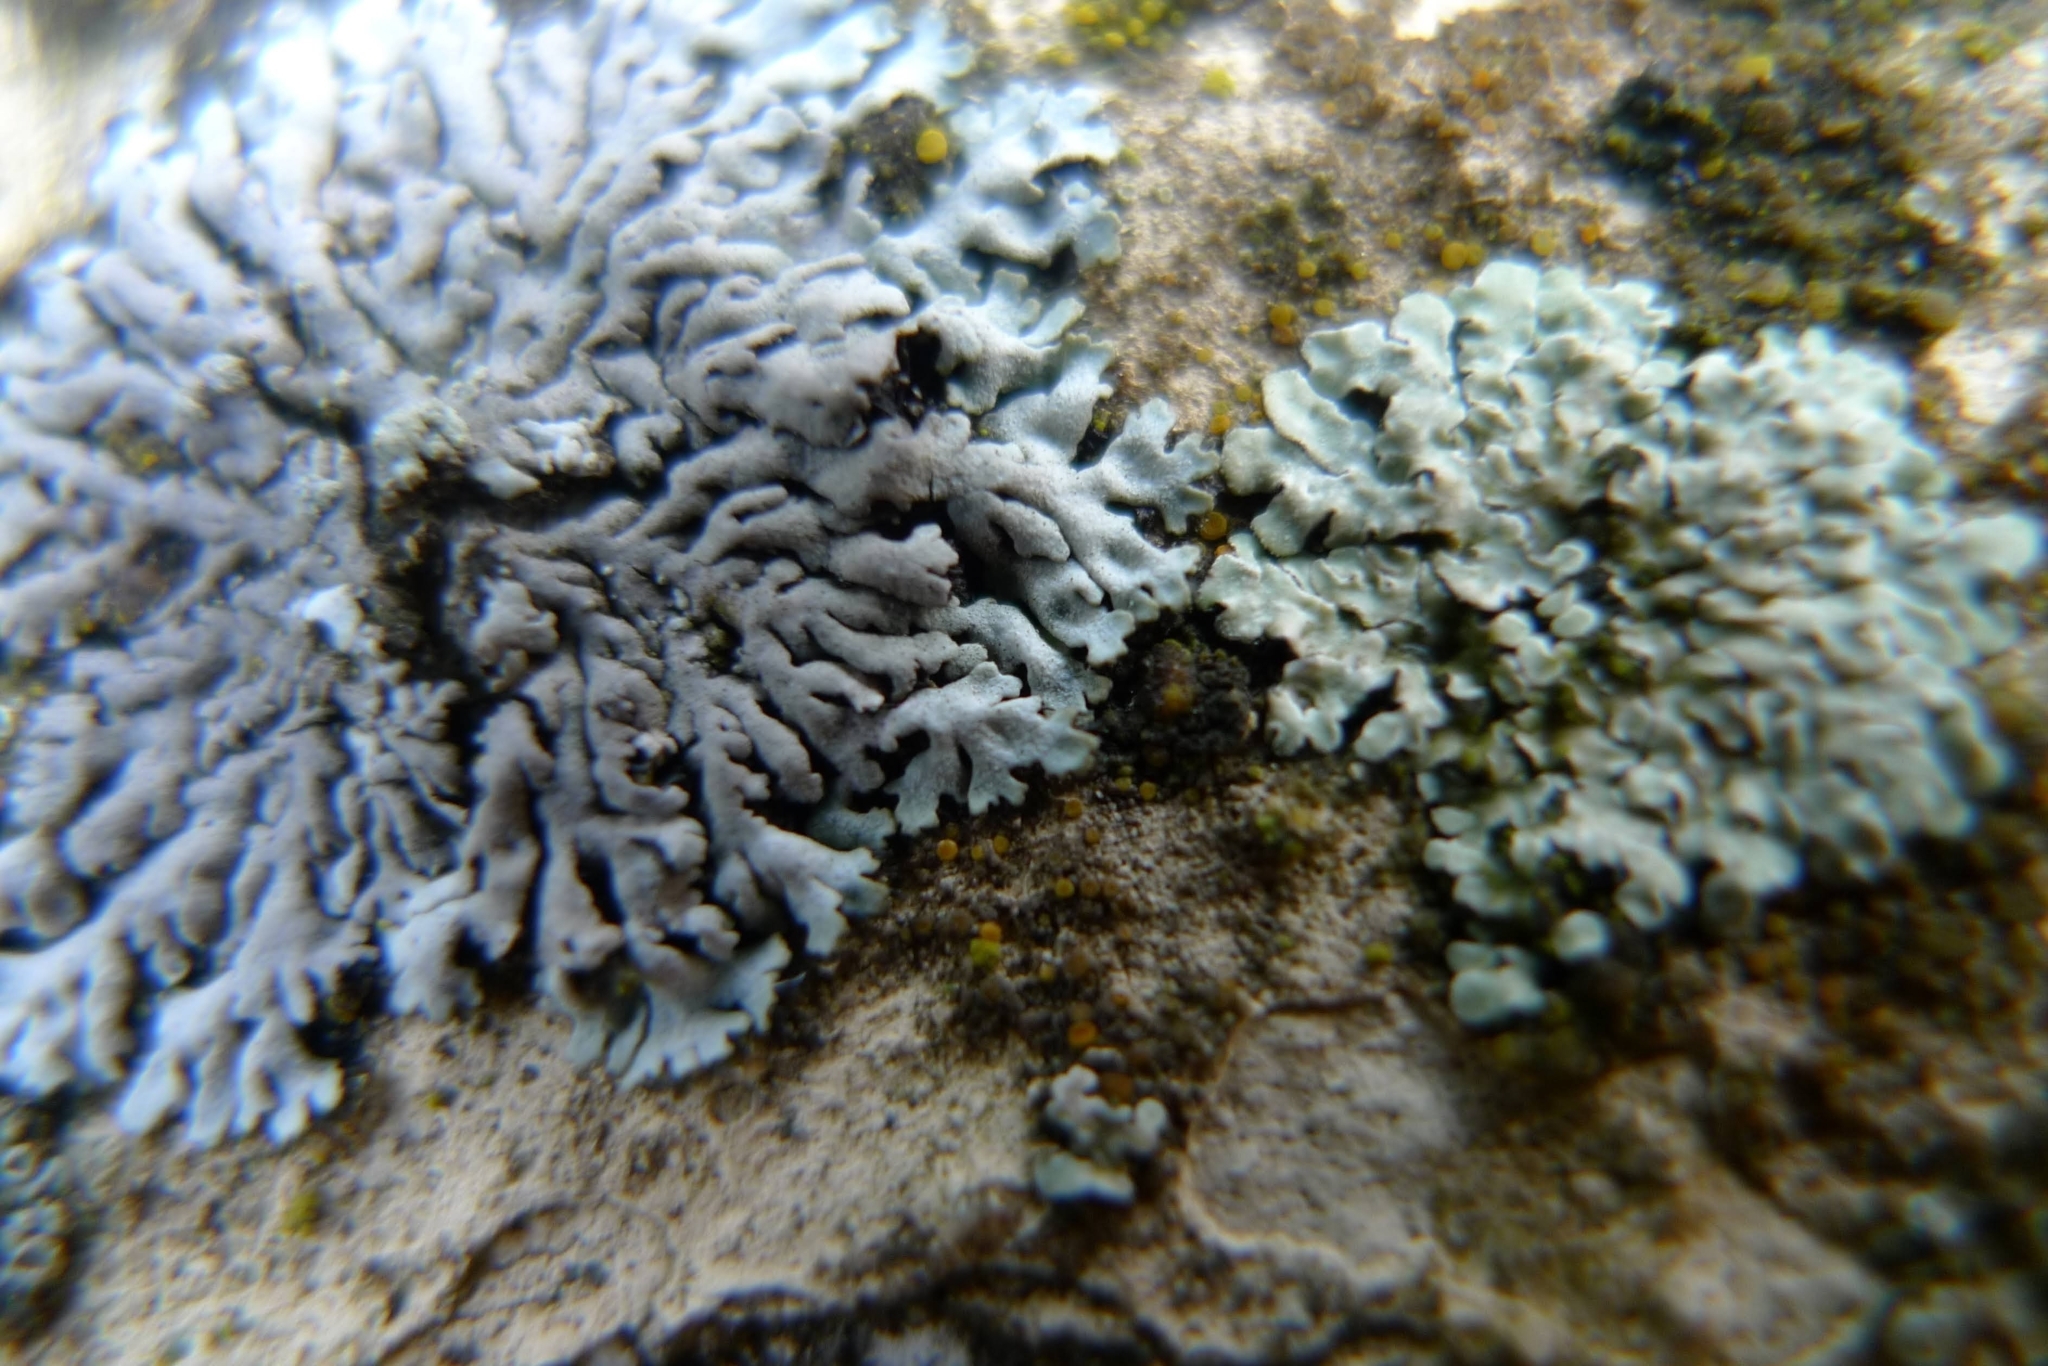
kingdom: Fungi
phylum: Ascomycota
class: Lecanoromycetes
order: Caliciales
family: Physciaceae
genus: Physcia
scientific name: Physcia caesia
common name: Blue-gray rosette lichen
